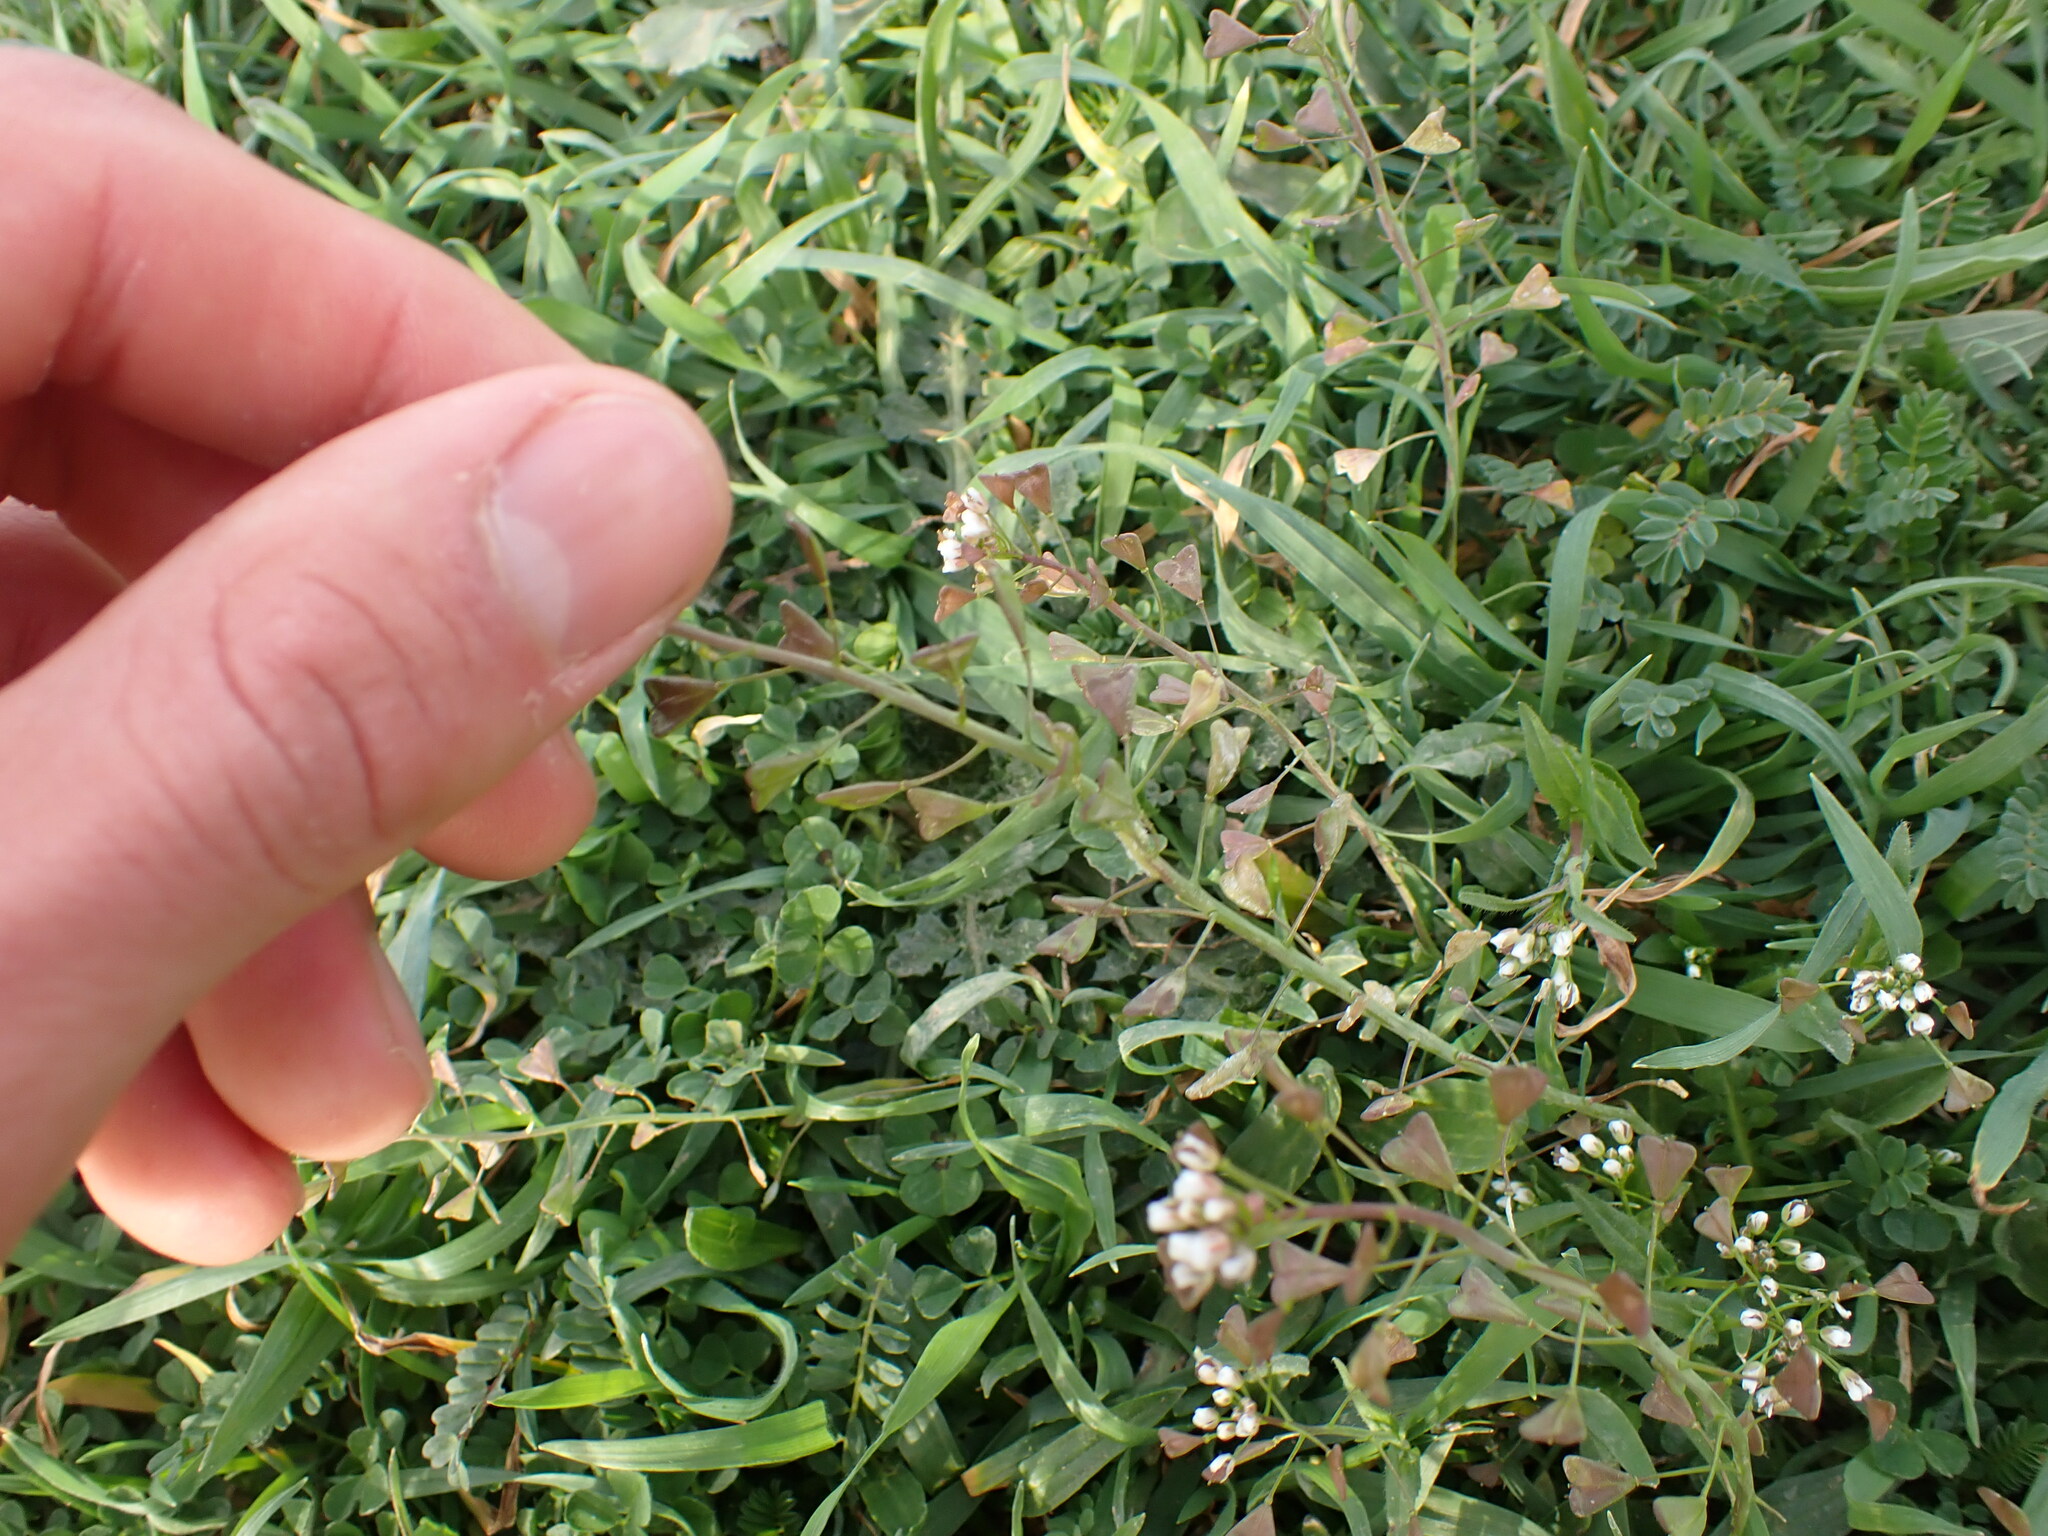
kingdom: Plantae
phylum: Tracheophyta
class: Magnoliopsida
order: Brassicales
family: Brassicaceae
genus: Capsella
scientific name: Capsella bursa-pastoris
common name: Shepherd's purse
